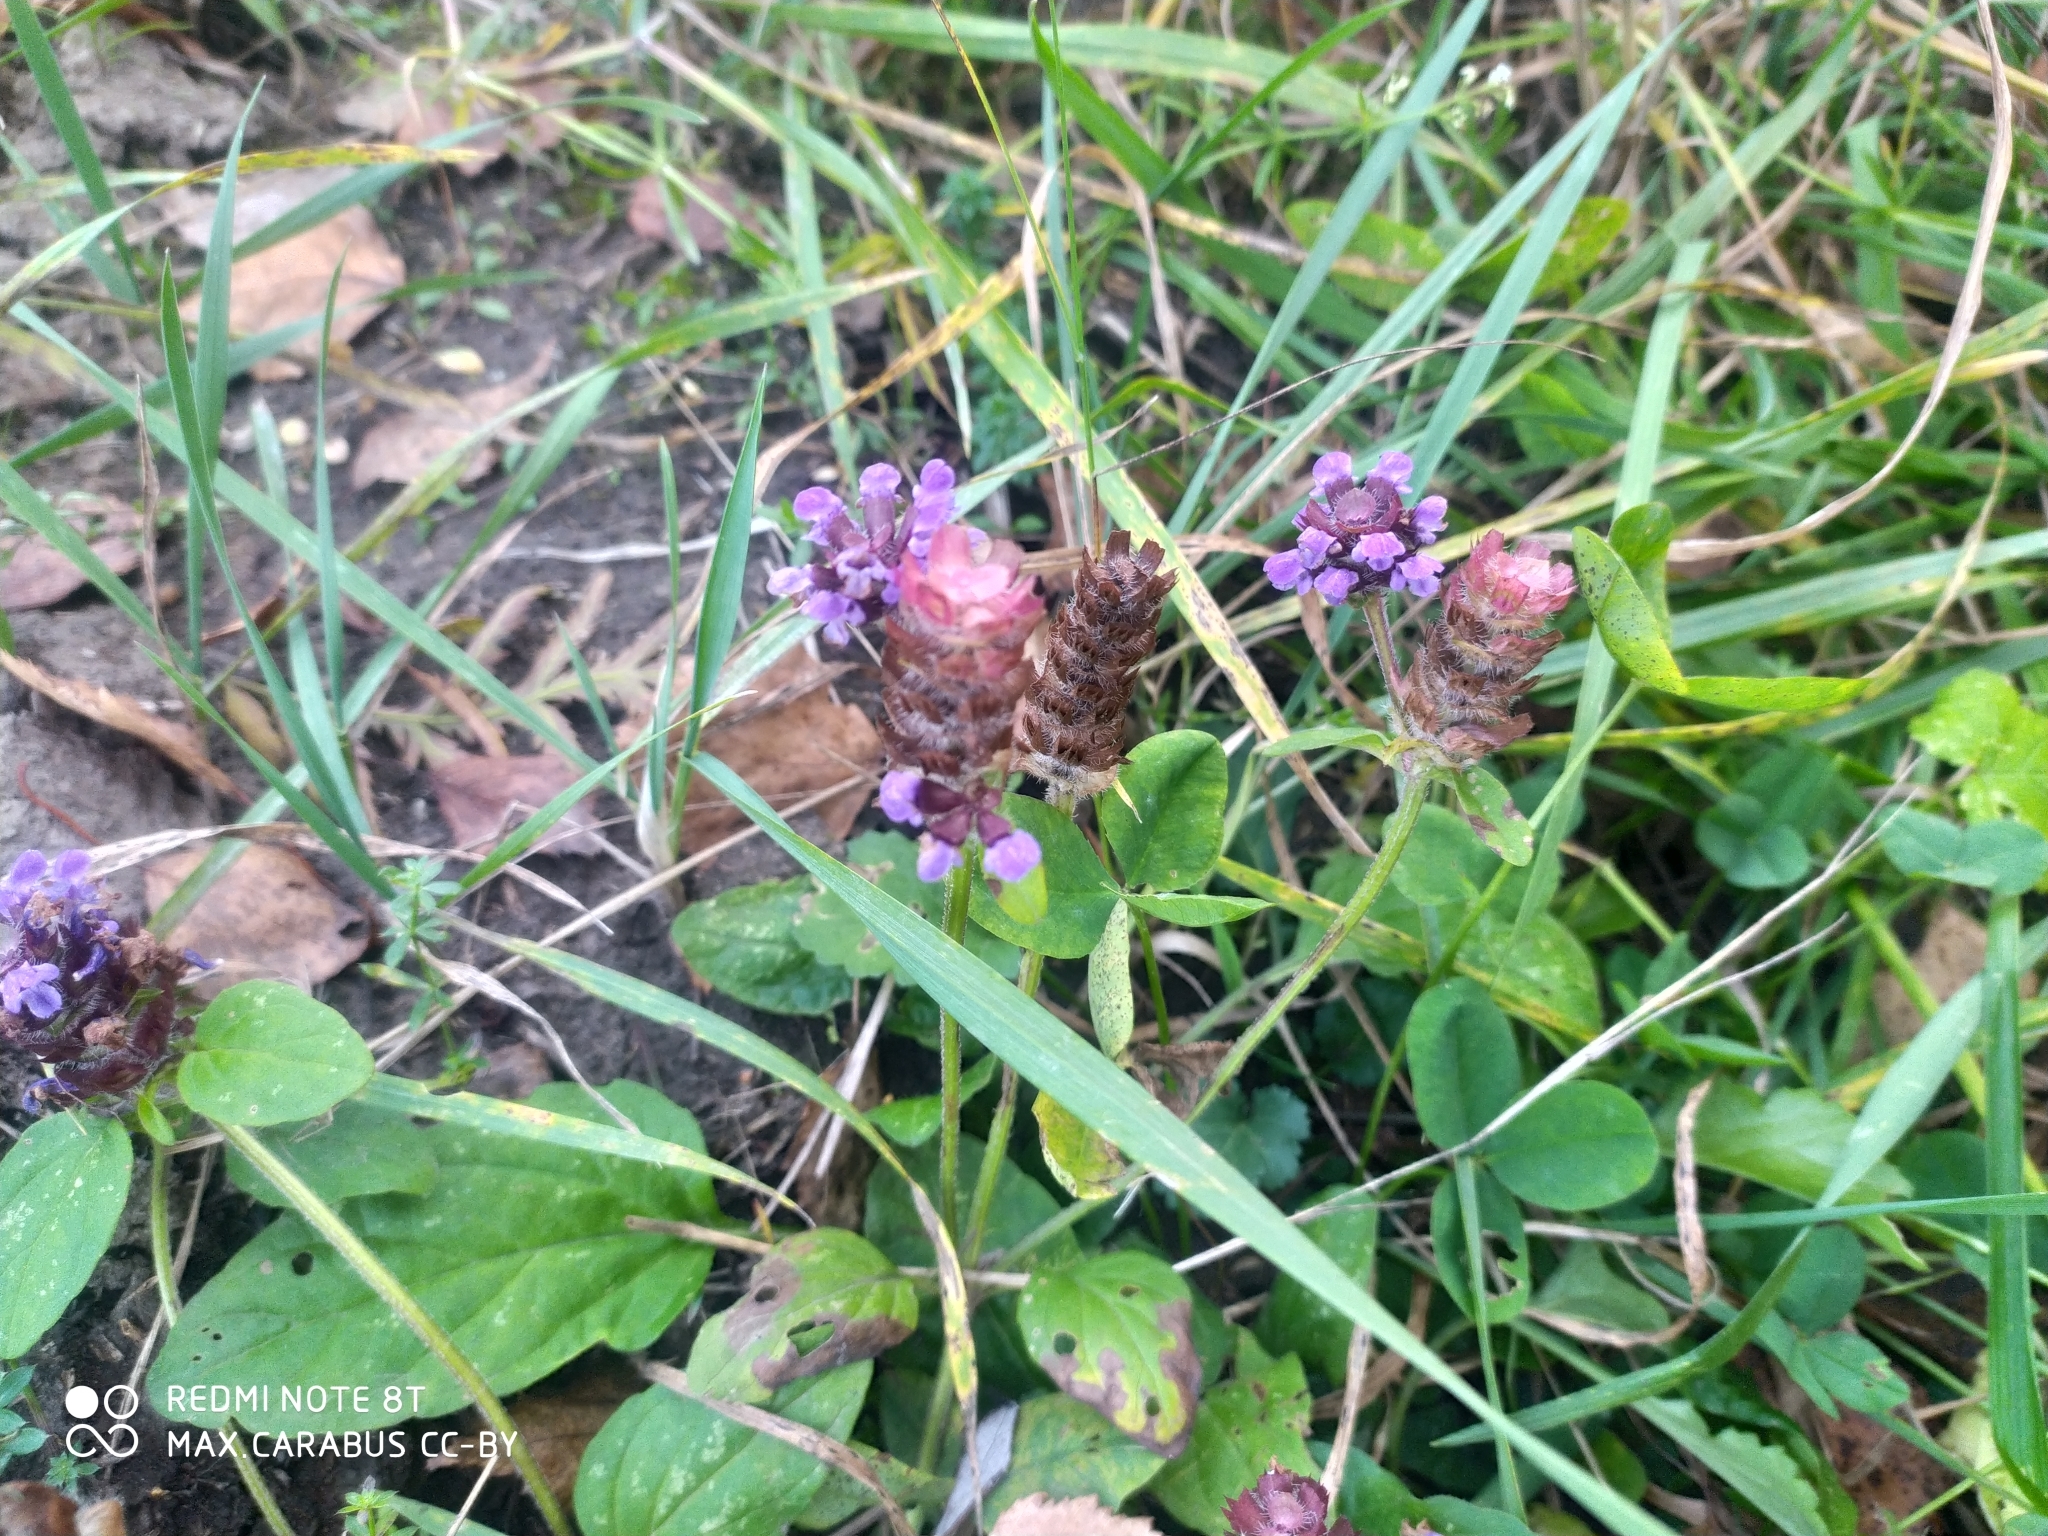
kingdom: Plantae
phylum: Tracheophyta
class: Magnoliopsida
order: Lamiales
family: Lamiaceae
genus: Prunella
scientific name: Prunella vulgaris
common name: Heal-all
